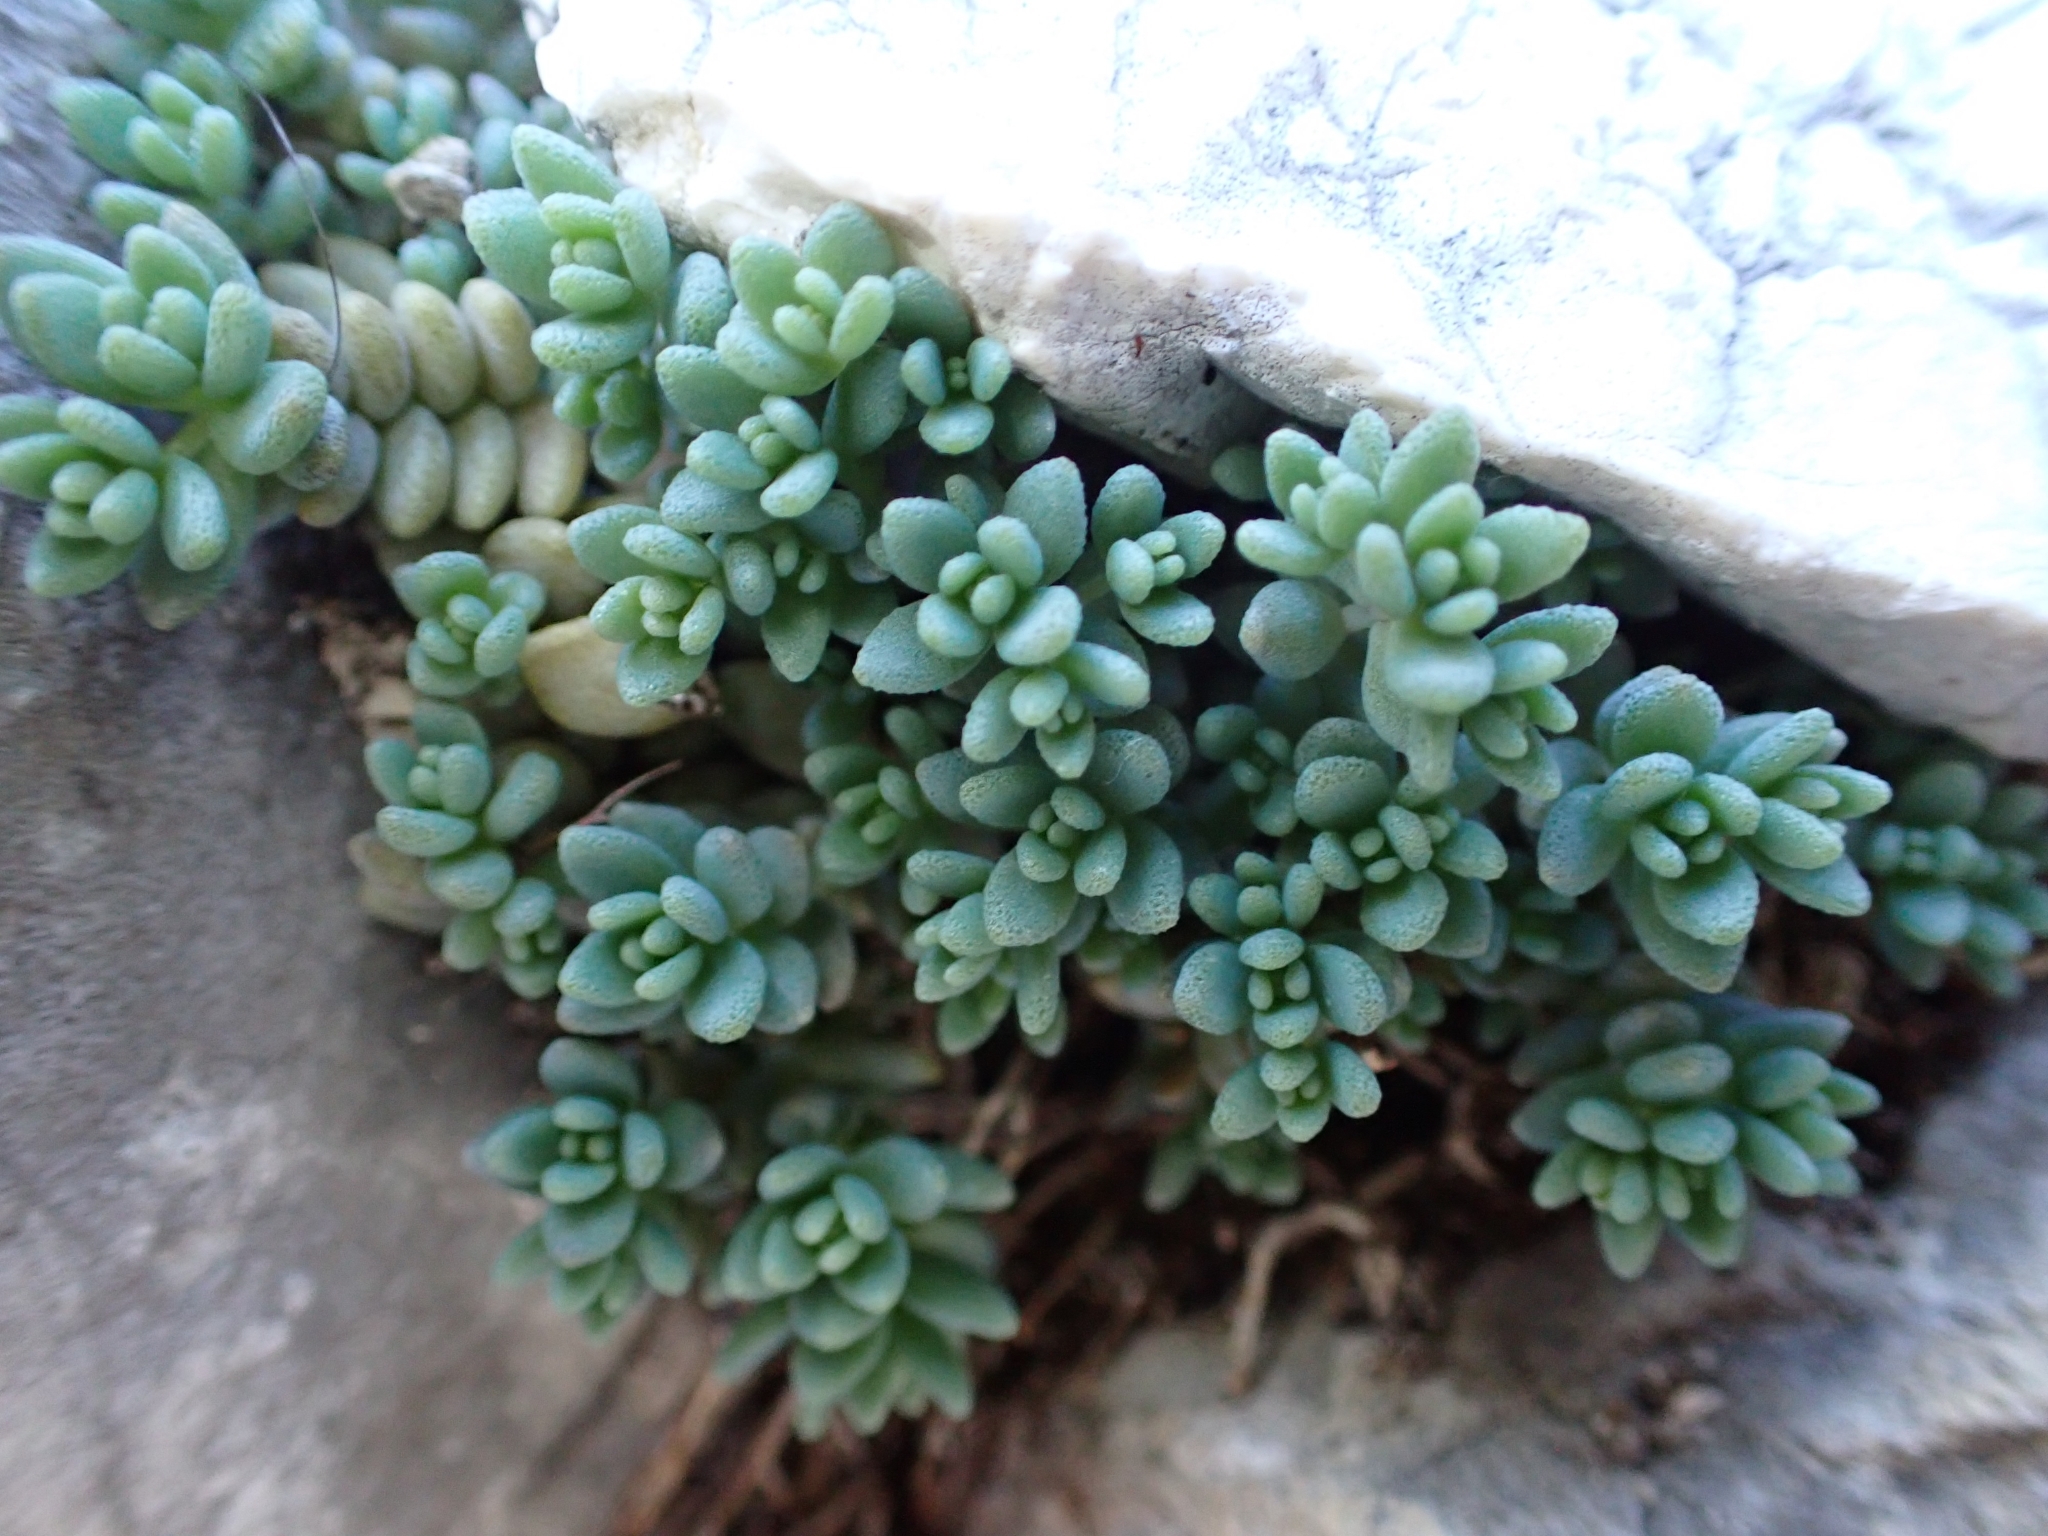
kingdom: Plantae
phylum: Tracheophyta
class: Magnoliopsida
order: Saxifragales
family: Crassulaceae
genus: Sedum
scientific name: Sedum dasyphyllum
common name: Thick-leaf stonecrop
